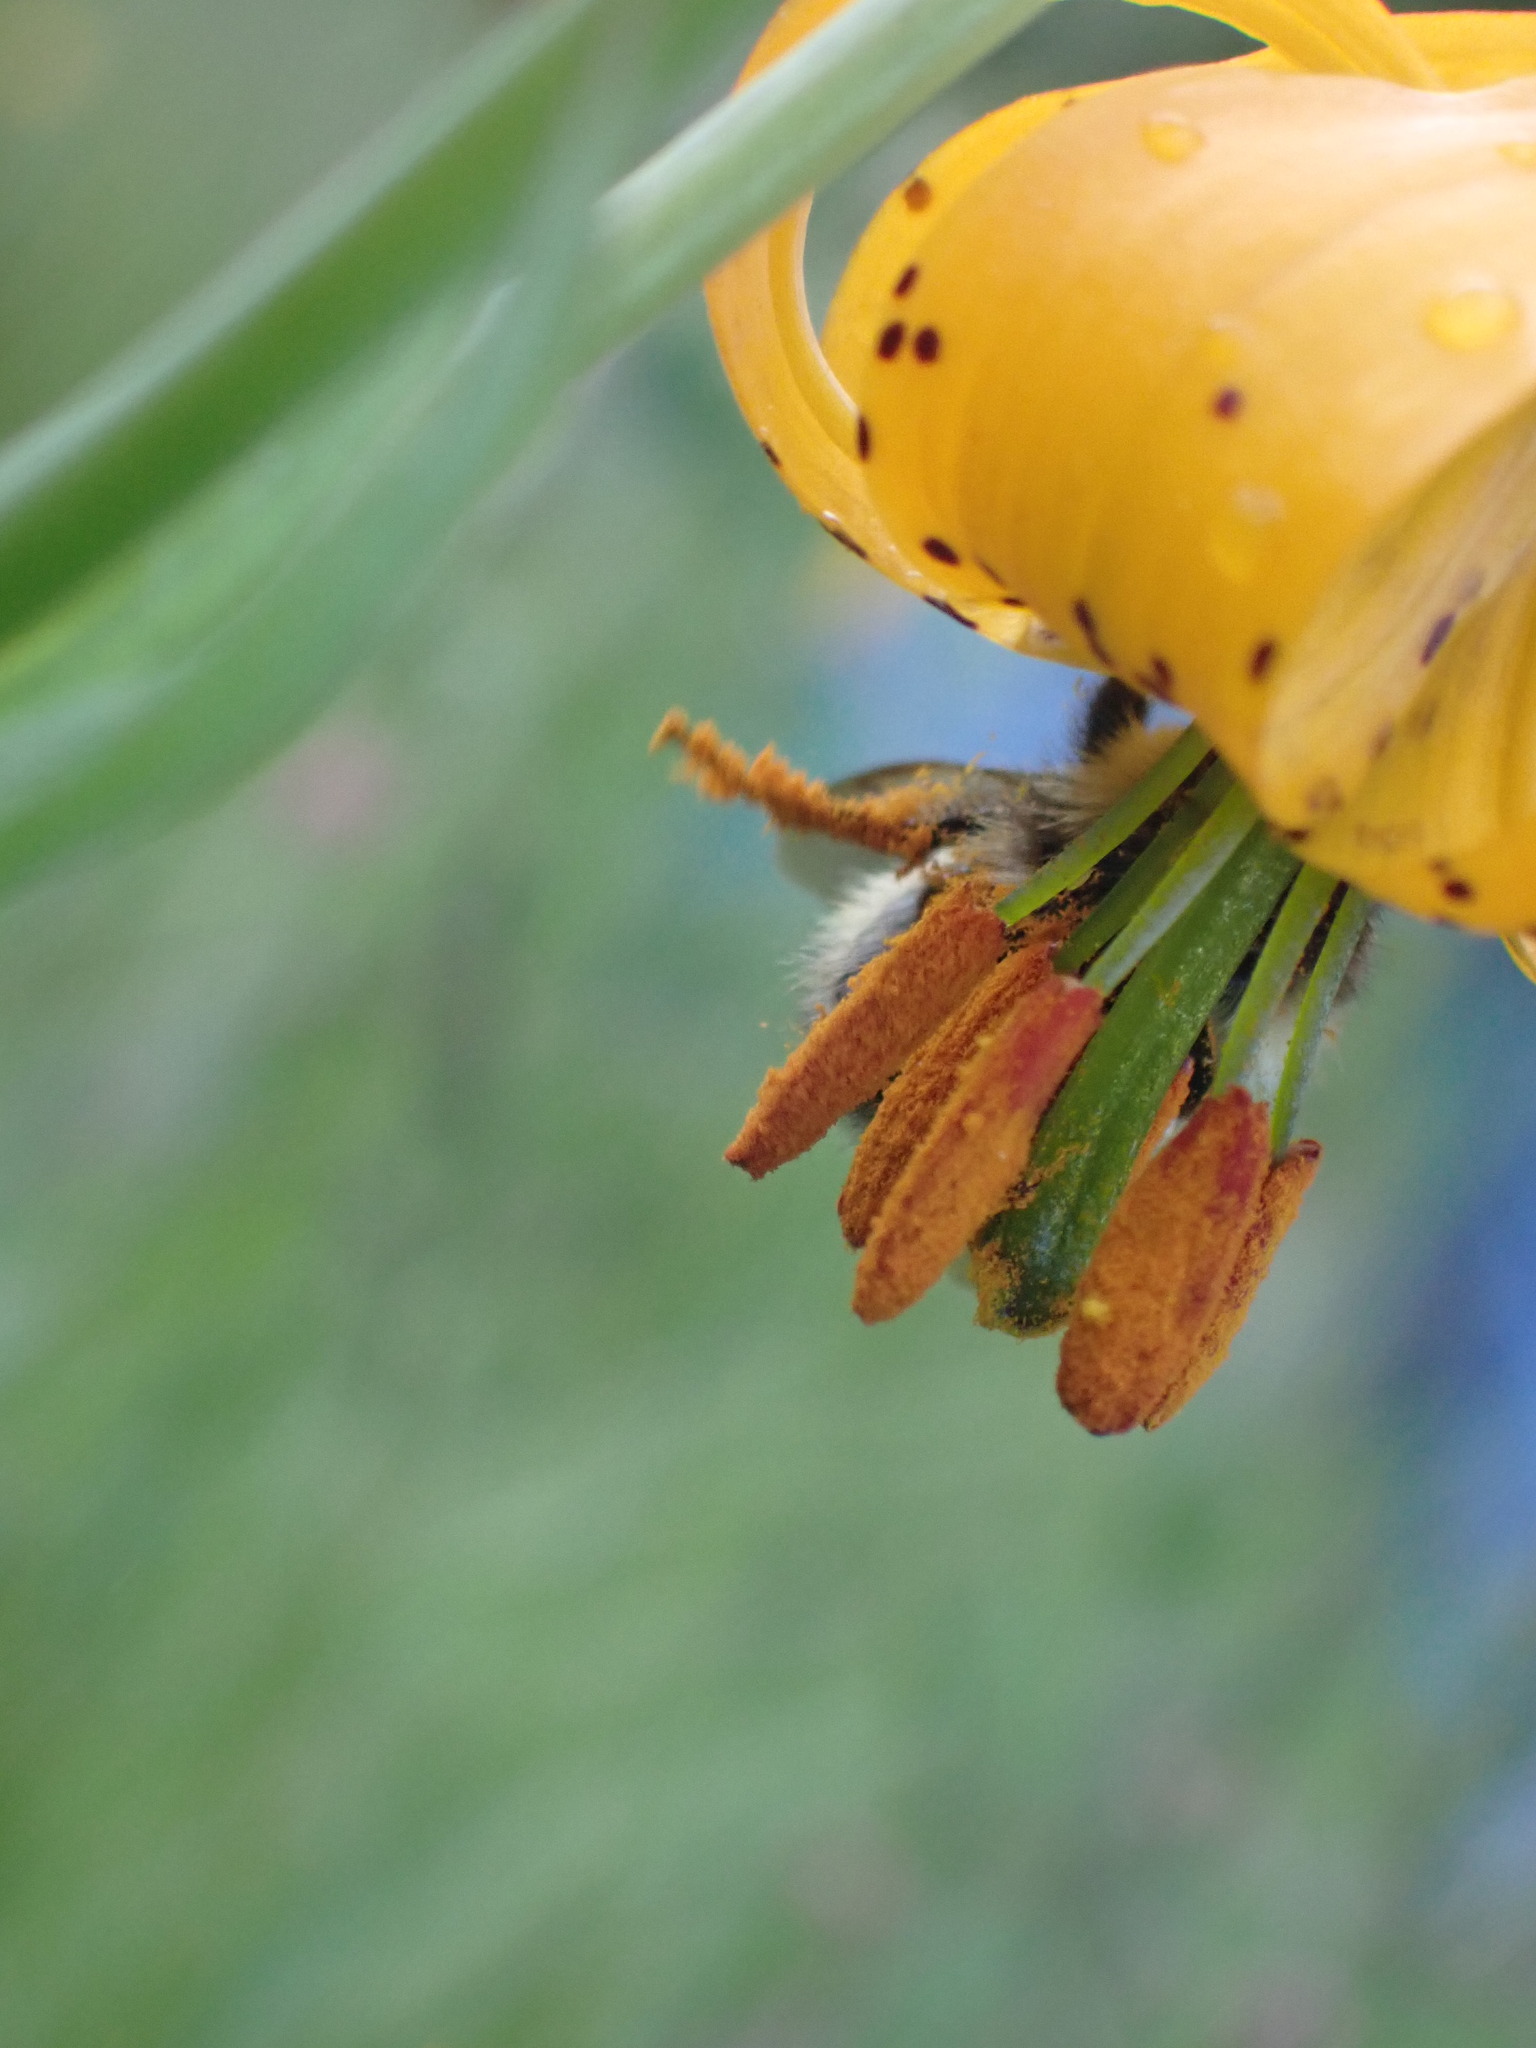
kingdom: Plantae
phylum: Tracheophyta
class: Liliopsida
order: Liliales
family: Liliaceae
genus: Lilium
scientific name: Lilium columbianum
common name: Columbia lily
